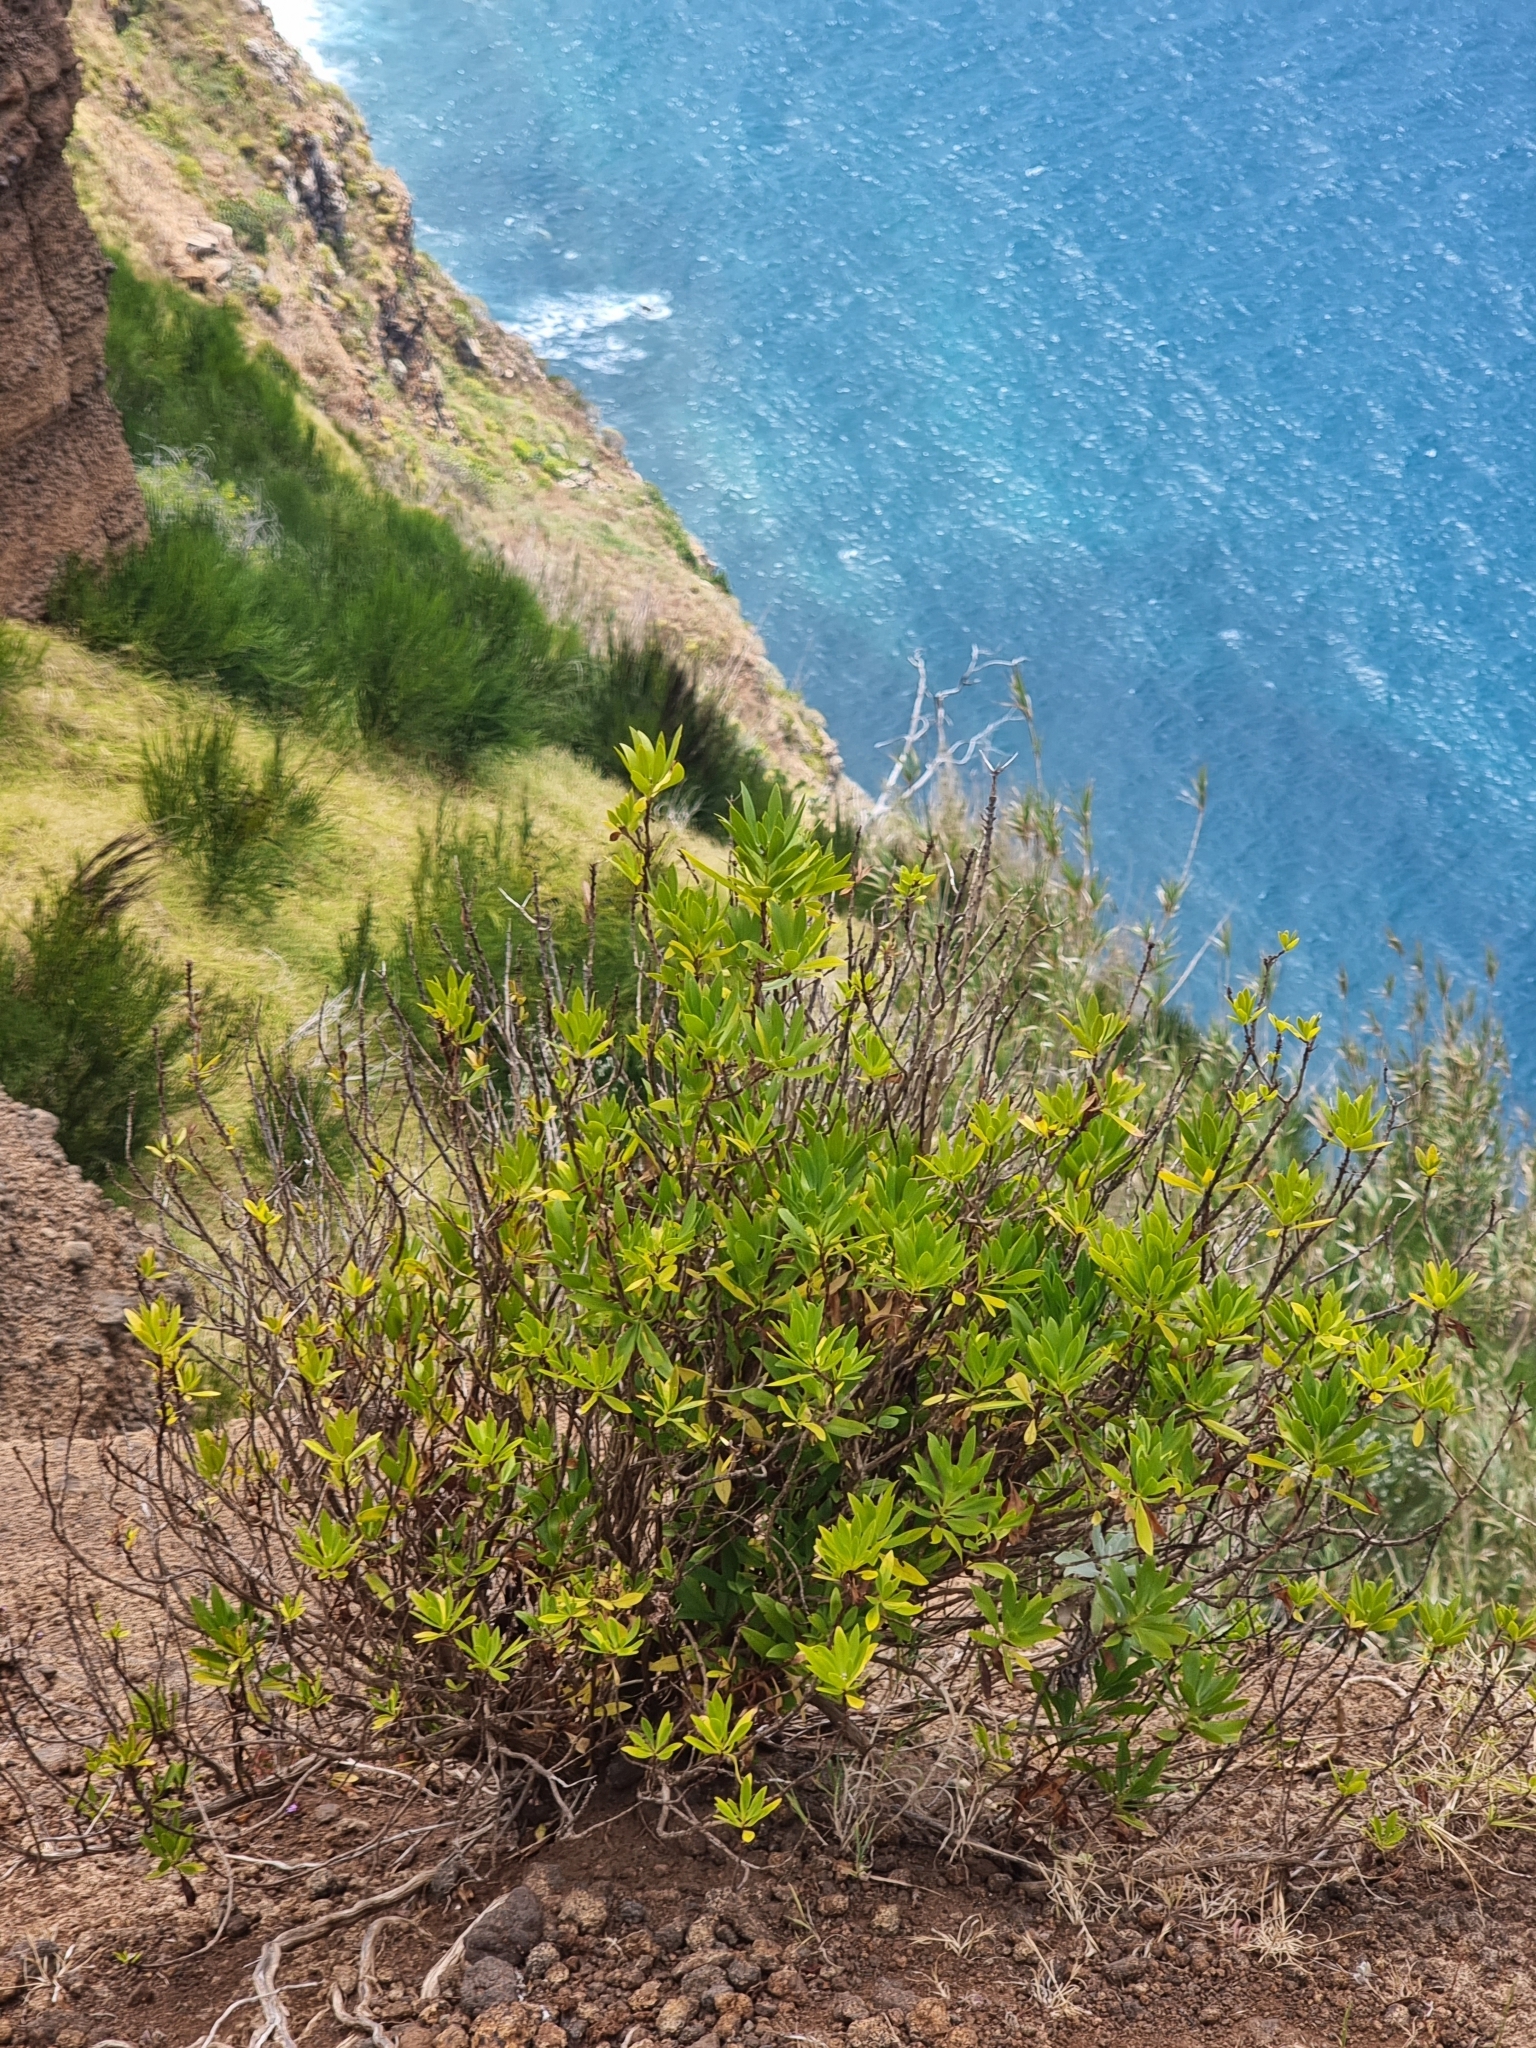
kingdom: Plantae
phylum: Tracheophyta
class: Magnoliopsida
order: Lamiales
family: Plantaginaceae
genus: Globularia
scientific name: Globularia salicina
